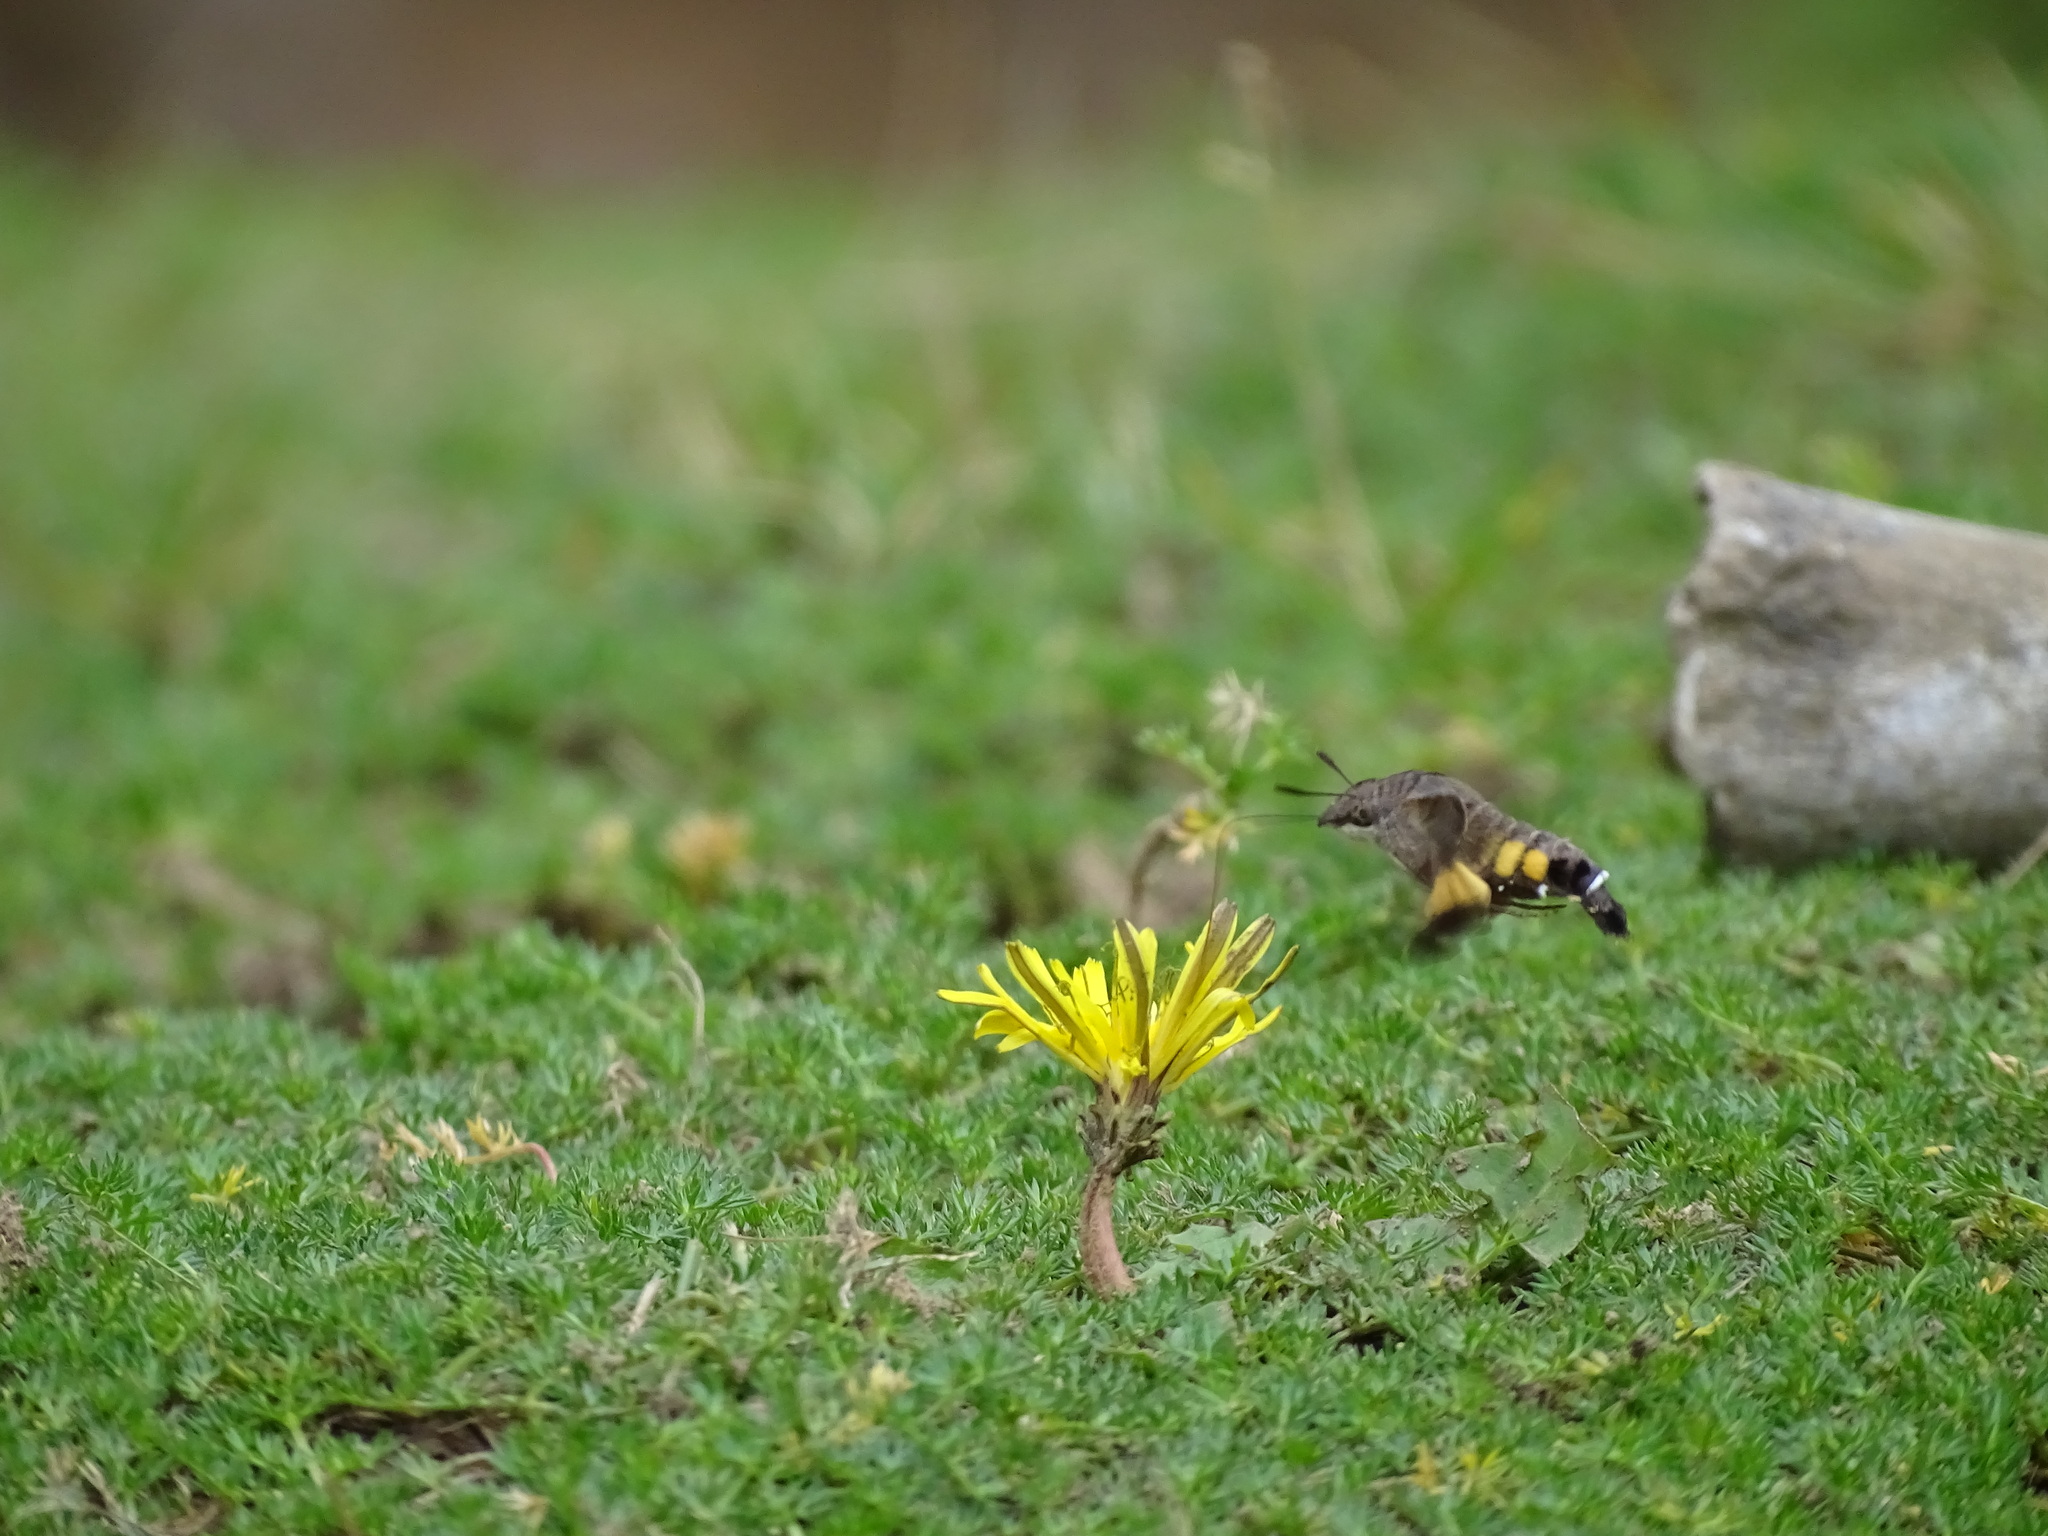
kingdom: Animalia
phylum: Arthropoda
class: Insecta
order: Lepidoptera
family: Sphingidae
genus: Macroglossum
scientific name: Macroglossum passalus
